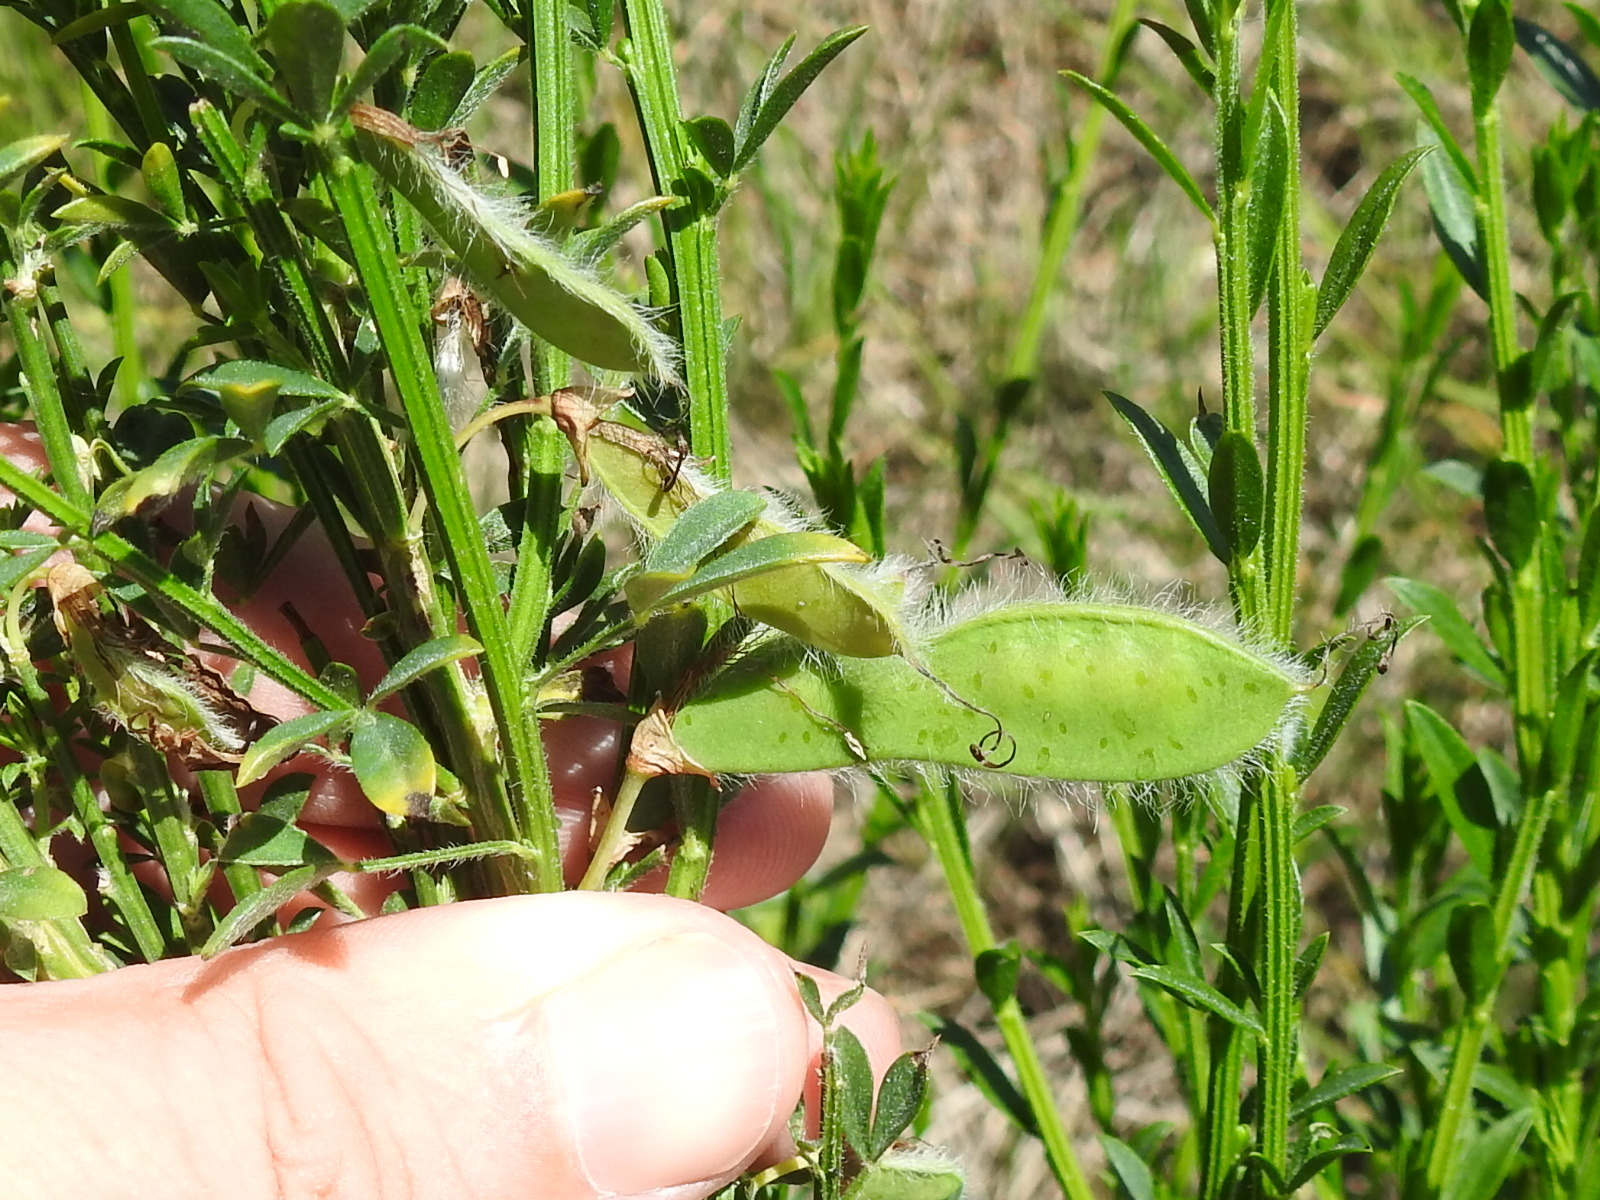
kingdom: Plantae
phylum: Tracheophyta
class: Magnoliopsida
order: Fabales
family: Fabaceae
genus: Cytisus
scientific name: Cytisus scoparius
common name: Scotch broom
